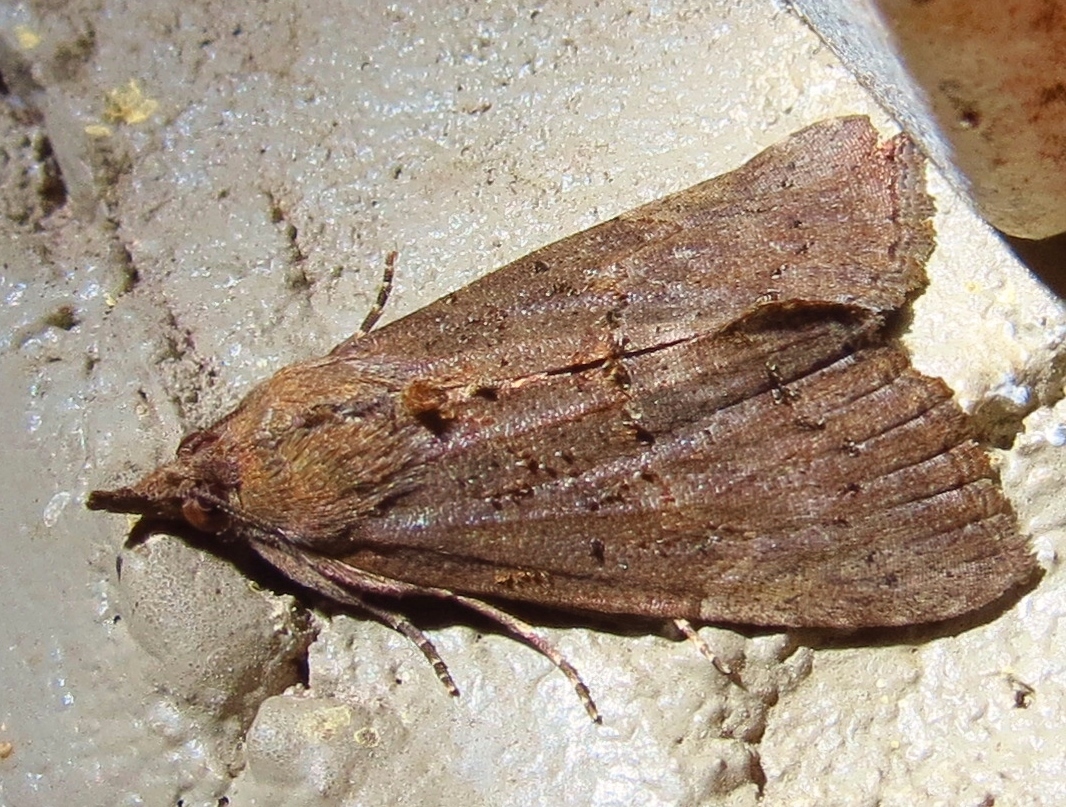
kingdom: Animalia
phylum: Arthropoda
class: Insecta
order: Lepidoptera
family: Erebidae
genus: Hypena
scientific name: Hypena scabra
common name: Green cloverworm
